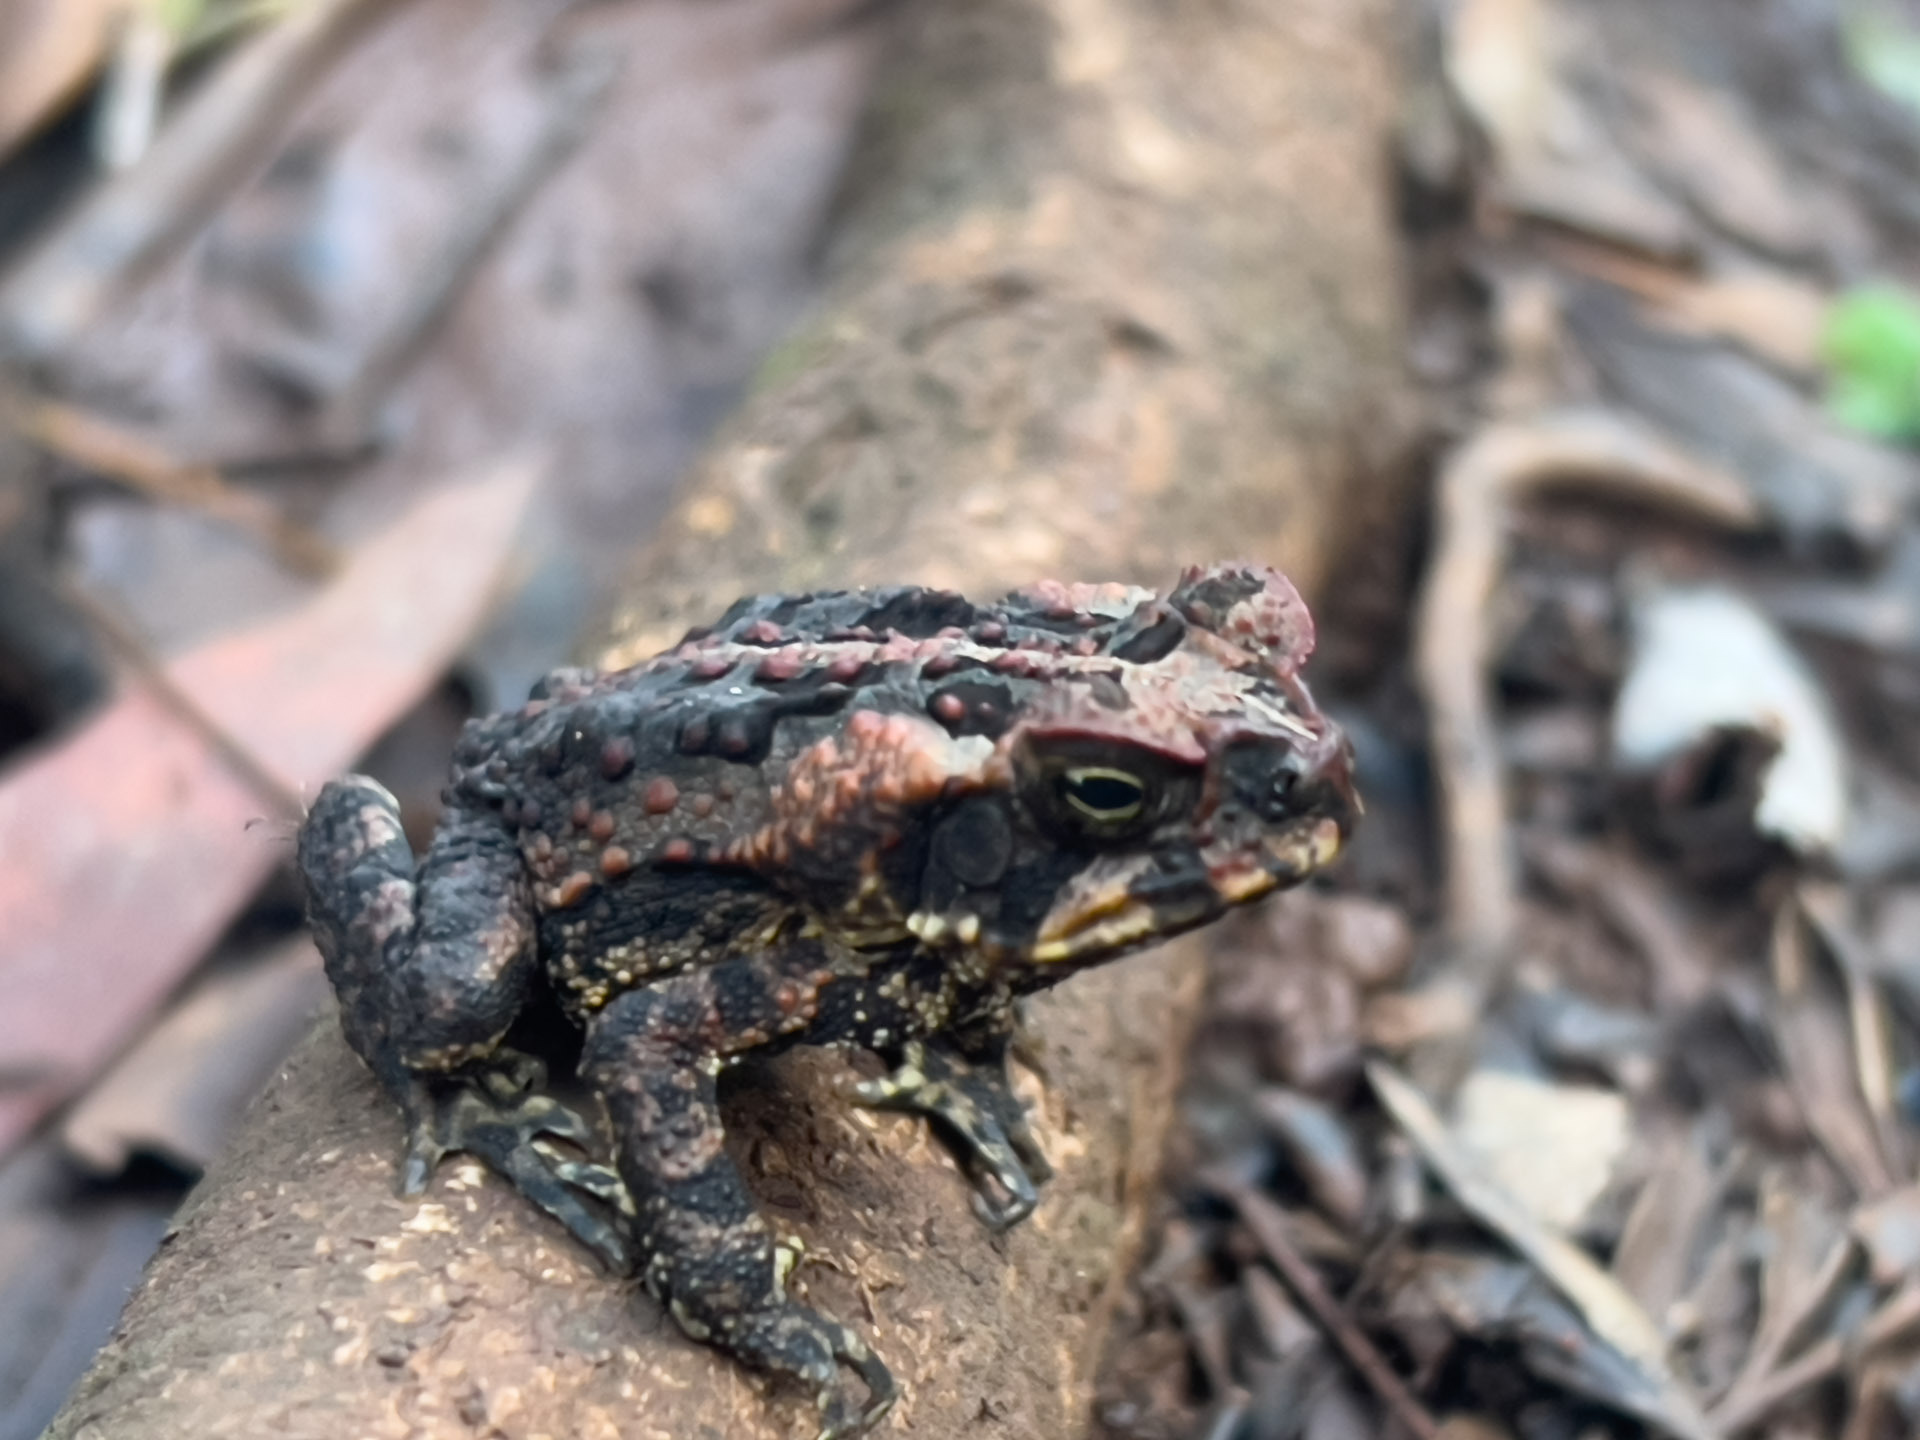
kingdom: Animalia
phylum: Chordata
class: Amphibia
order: Anura
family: Bufonidae
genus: Rhinella
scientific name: Rhinella marina
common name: Cane toad
